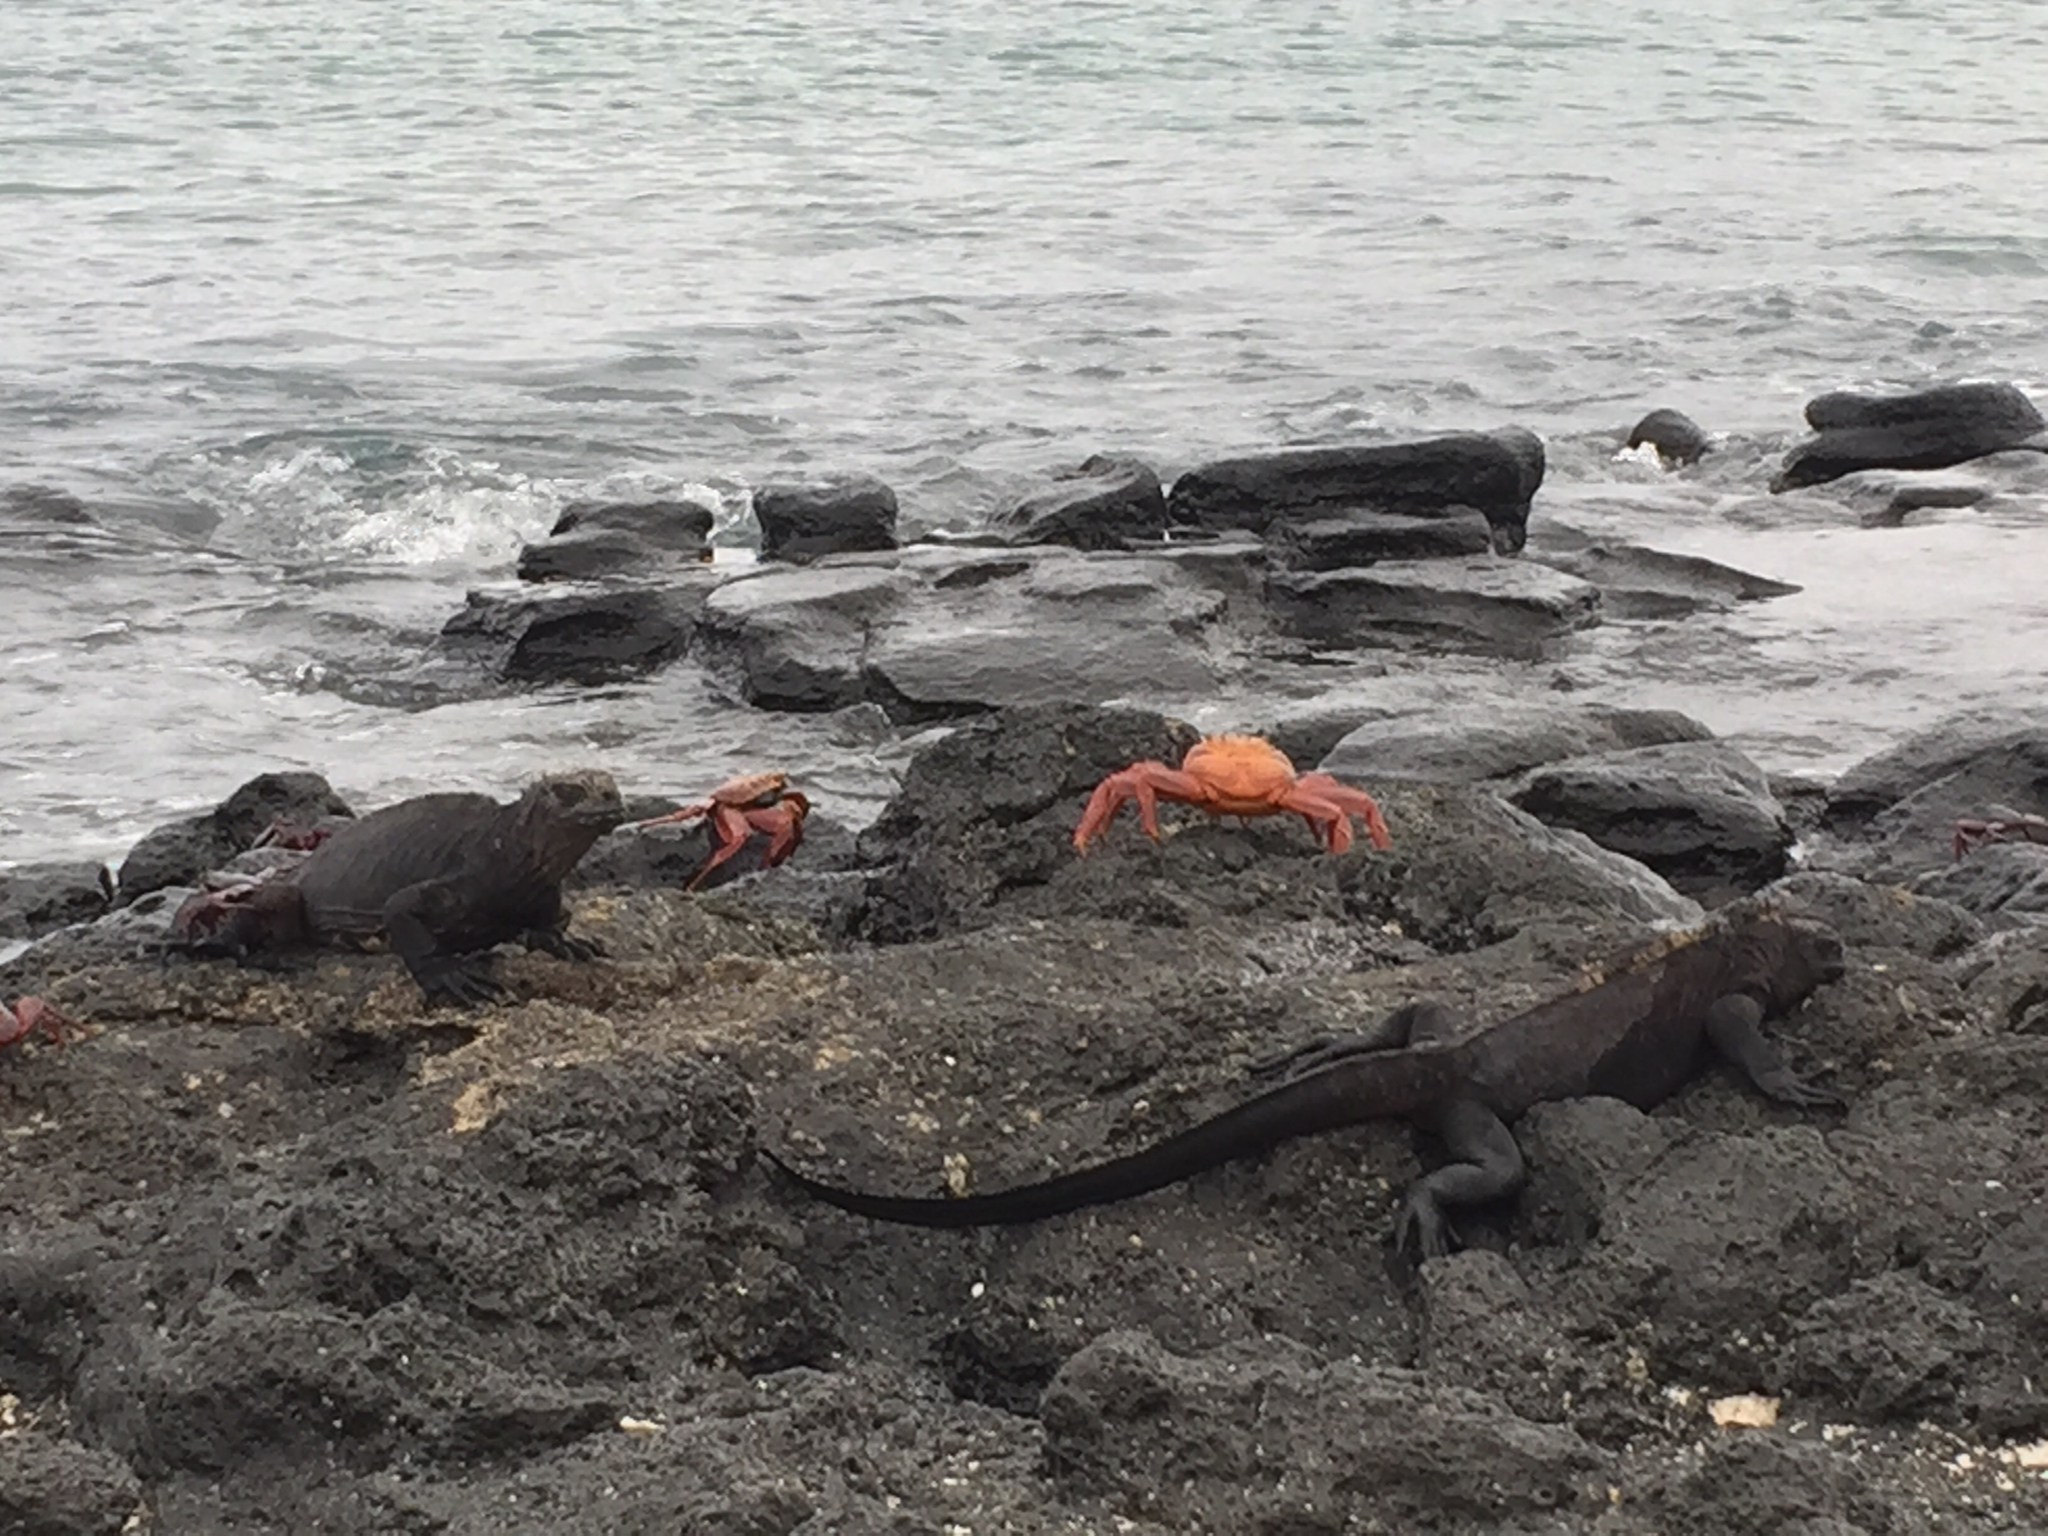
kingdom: Animalia
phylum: Chordata
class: Squamata
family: Iguanidae
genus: Amblyrhynchus
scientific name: Amblyrhynchus cristatus
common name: Marine iguana
